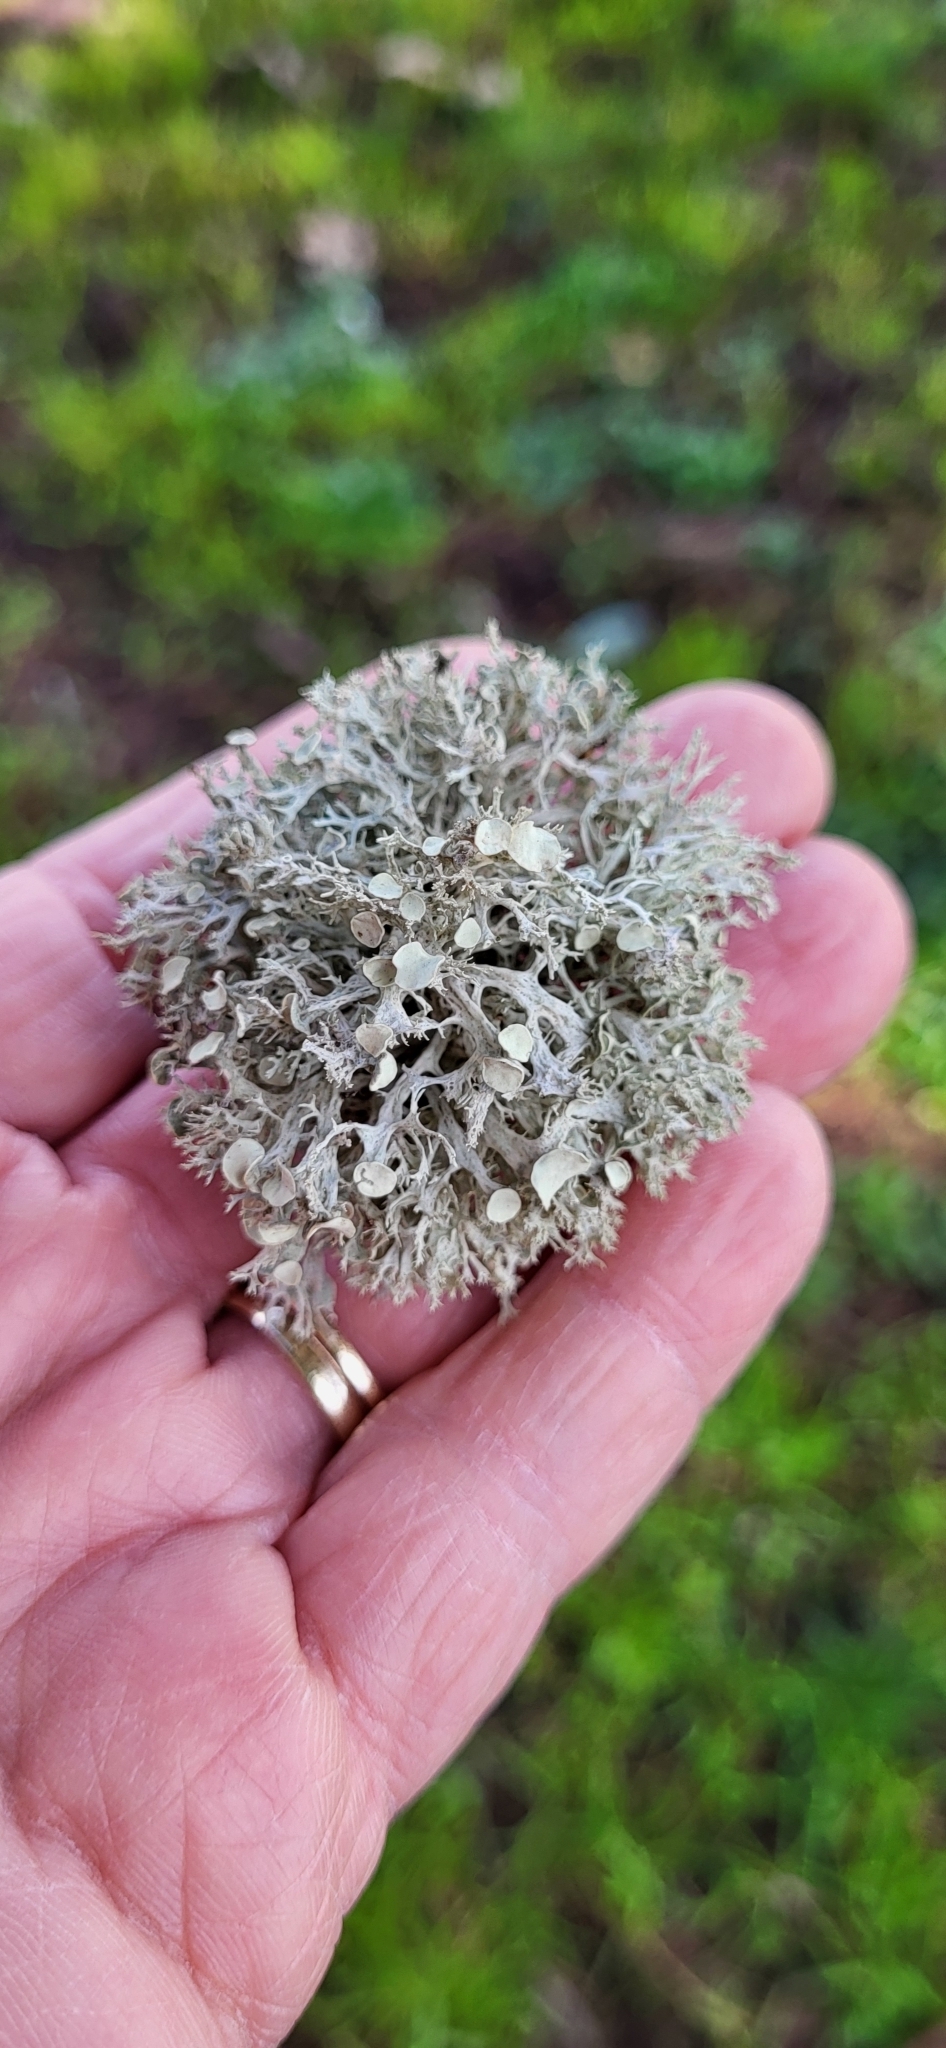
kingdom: Fungi
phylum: Ascomycota
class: Lecanoromycetes
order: Lecanorales
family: Ramalinaceae
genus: Ramalina
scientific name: Ramalina dilacerata
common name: Punctured bushy lichen
